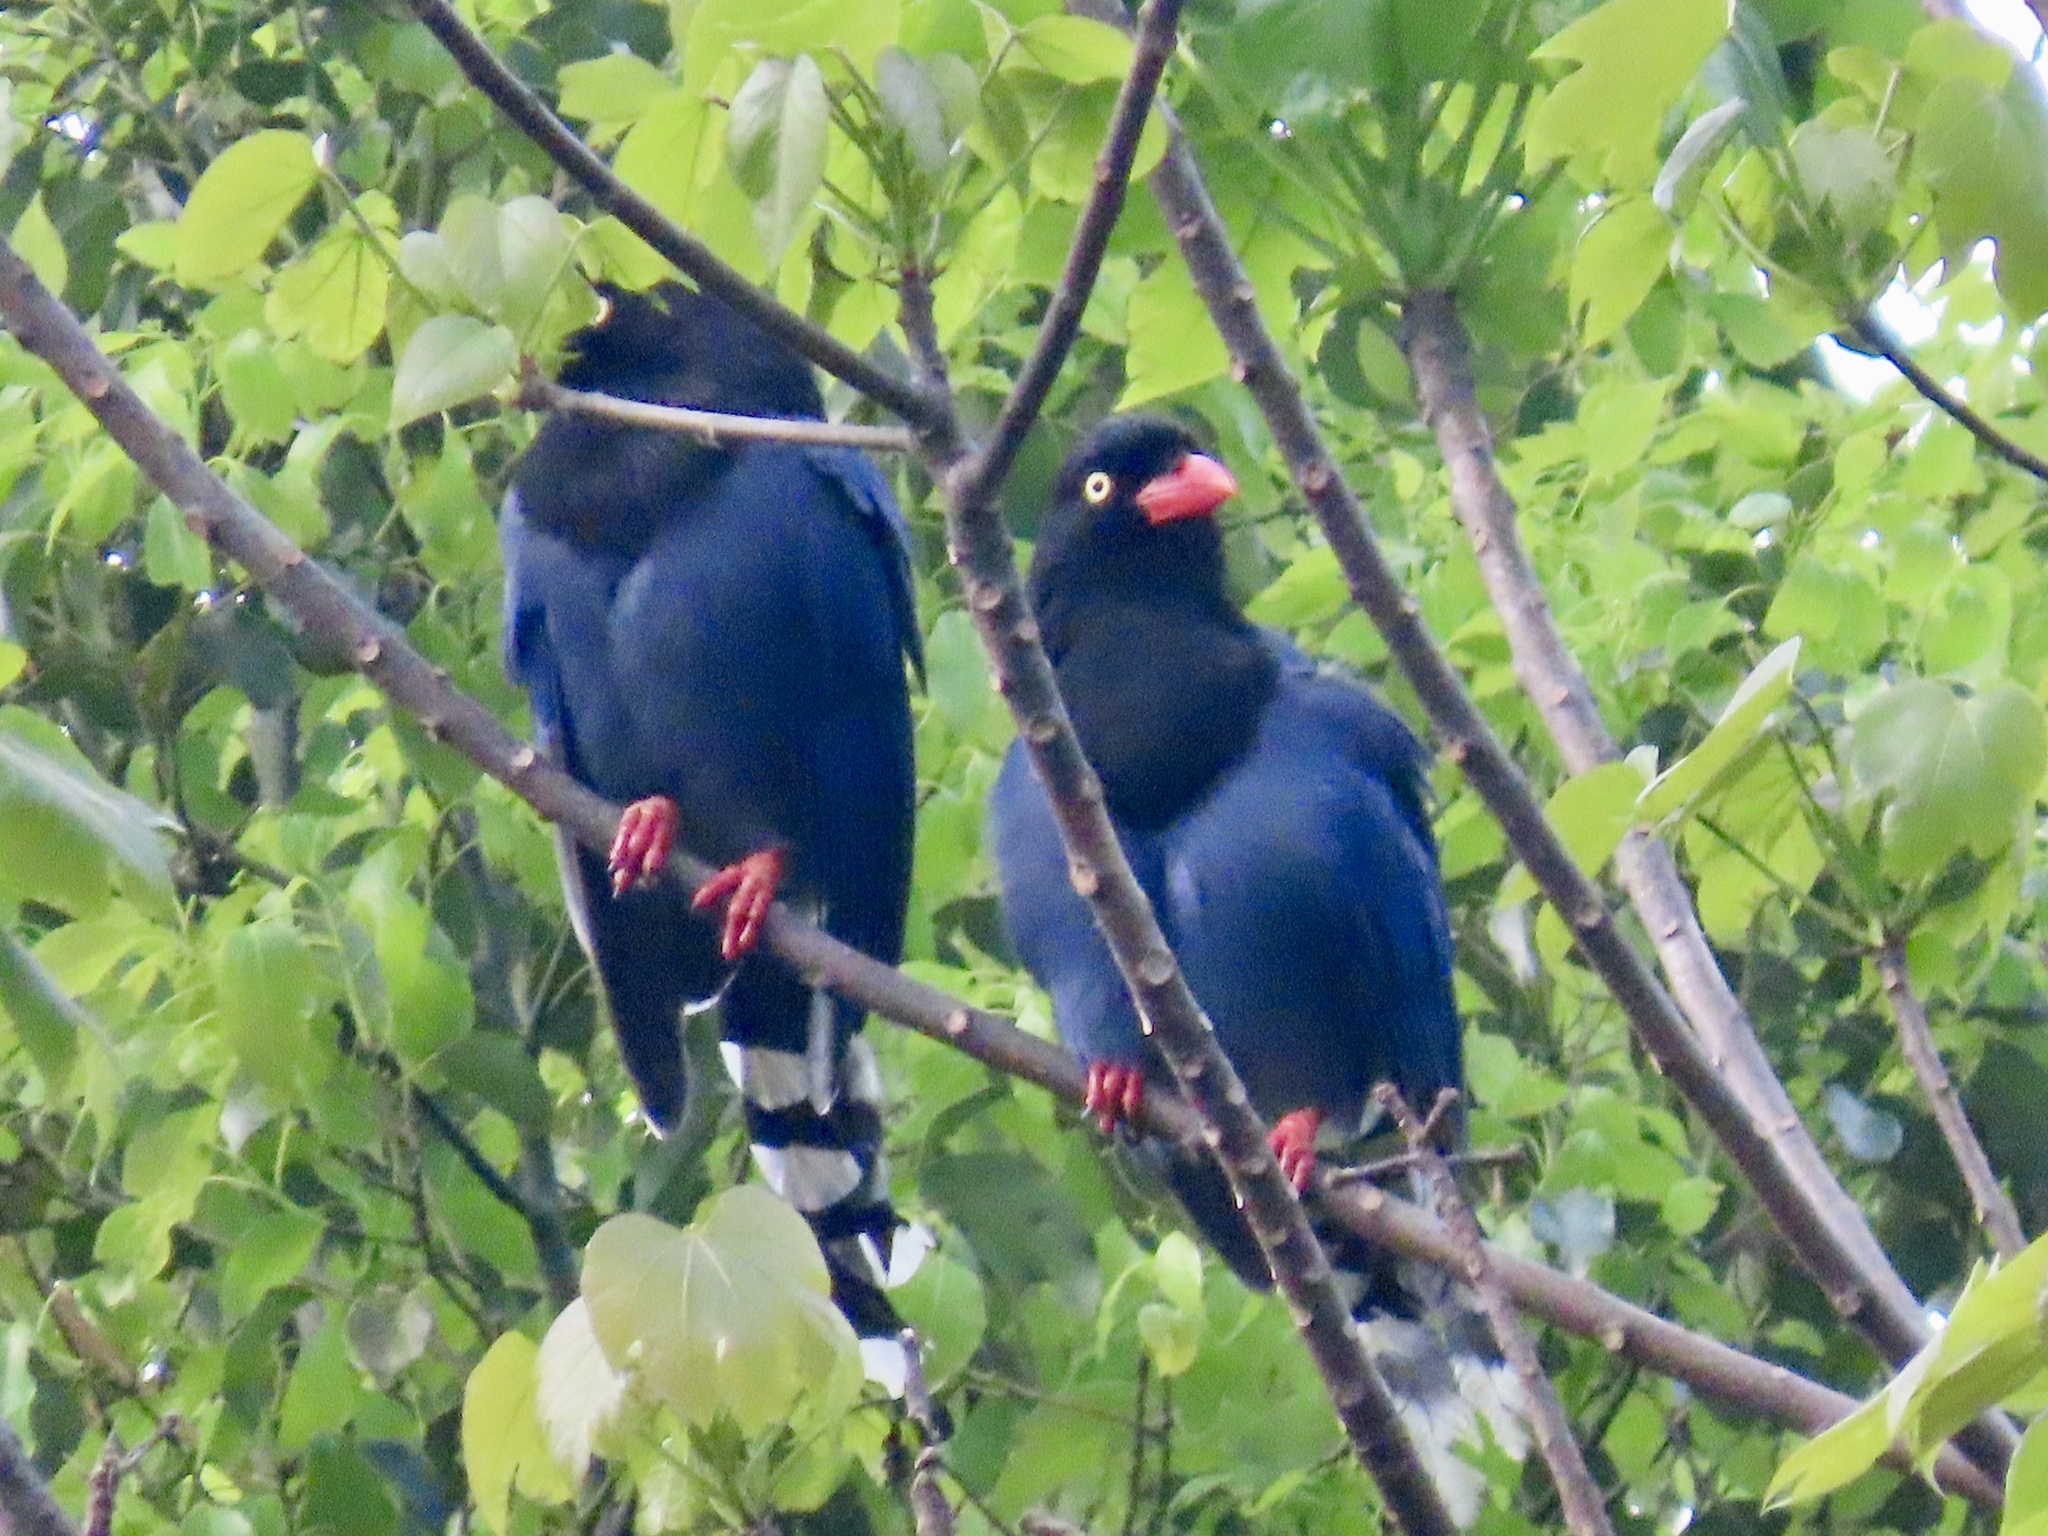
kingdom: Animalia
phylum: Chordata
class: Aves
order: Passeriformes
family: Corvidae
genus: Urocissa
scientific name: Urocissa caerulea
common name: Taiwan blue magpie
